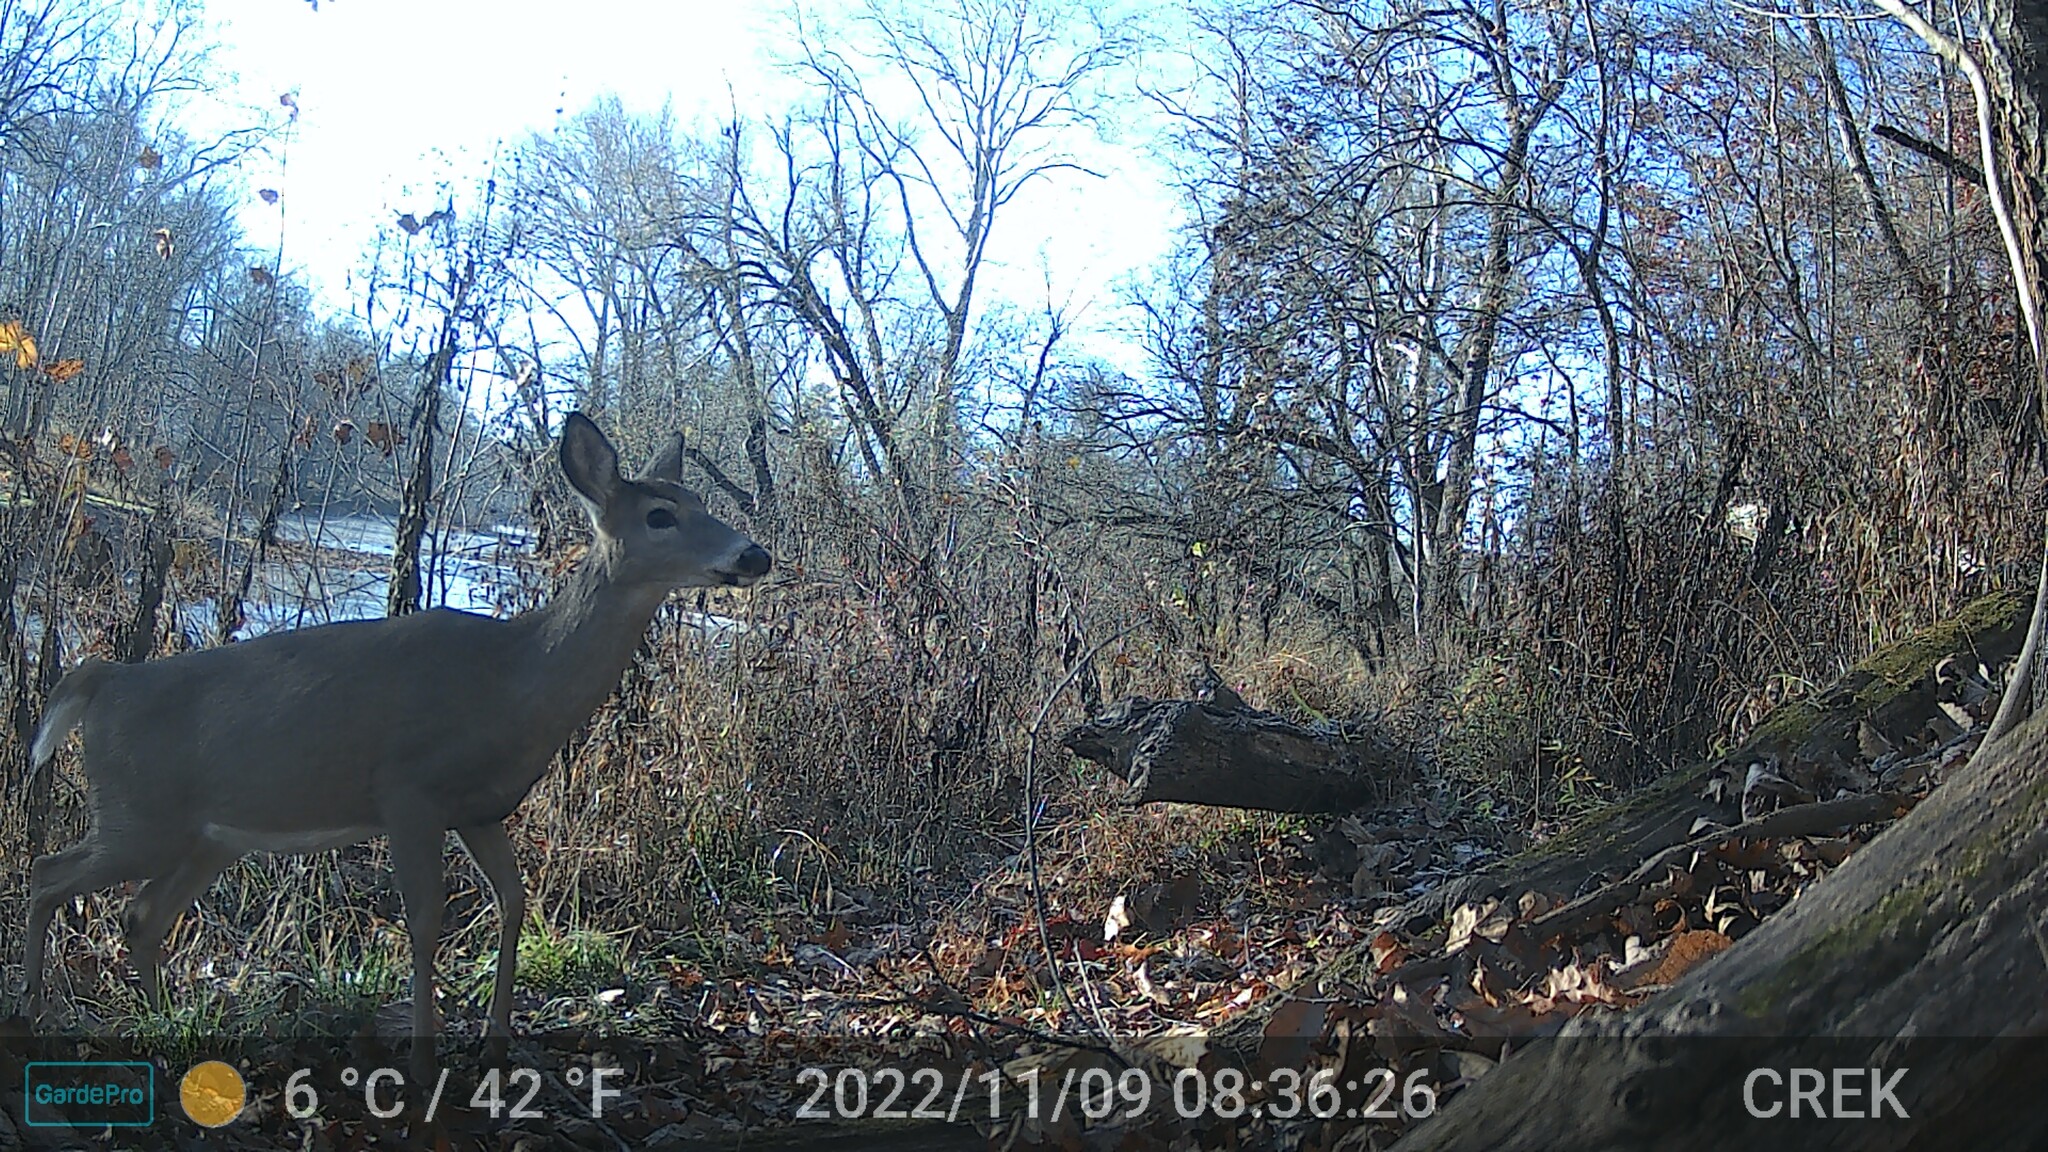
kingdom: Animalia
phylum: Chordata
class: Mammalia
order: Artiodactyla
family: Cervidae
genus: Odocoileus
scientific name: Odocoileus virginianus
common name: White-tailed deer
